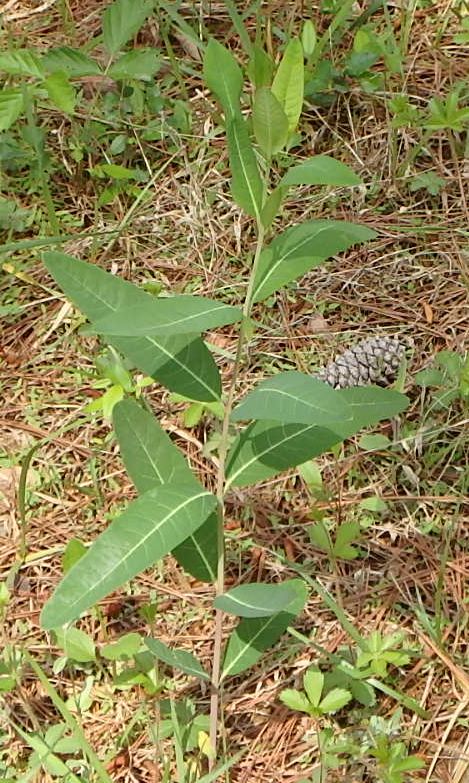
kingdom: Plantae
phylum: Tracheophyta
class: Magnoliopsida
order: Gentianales
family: Apocynaceae
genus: Apocynum
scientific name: Apocynum cannabinum
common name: Hemp dogbane
